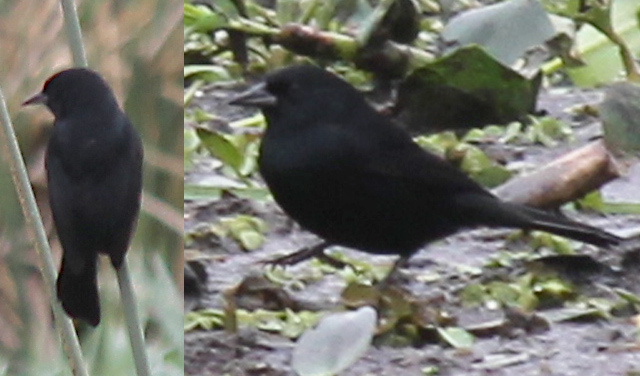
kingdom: Animalia
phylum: Chordata
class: Aves
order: Passeriformes
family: Icteridae
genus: Agelasticus
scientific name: Agelasticus cyanopus
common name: Unicolored blackbird
